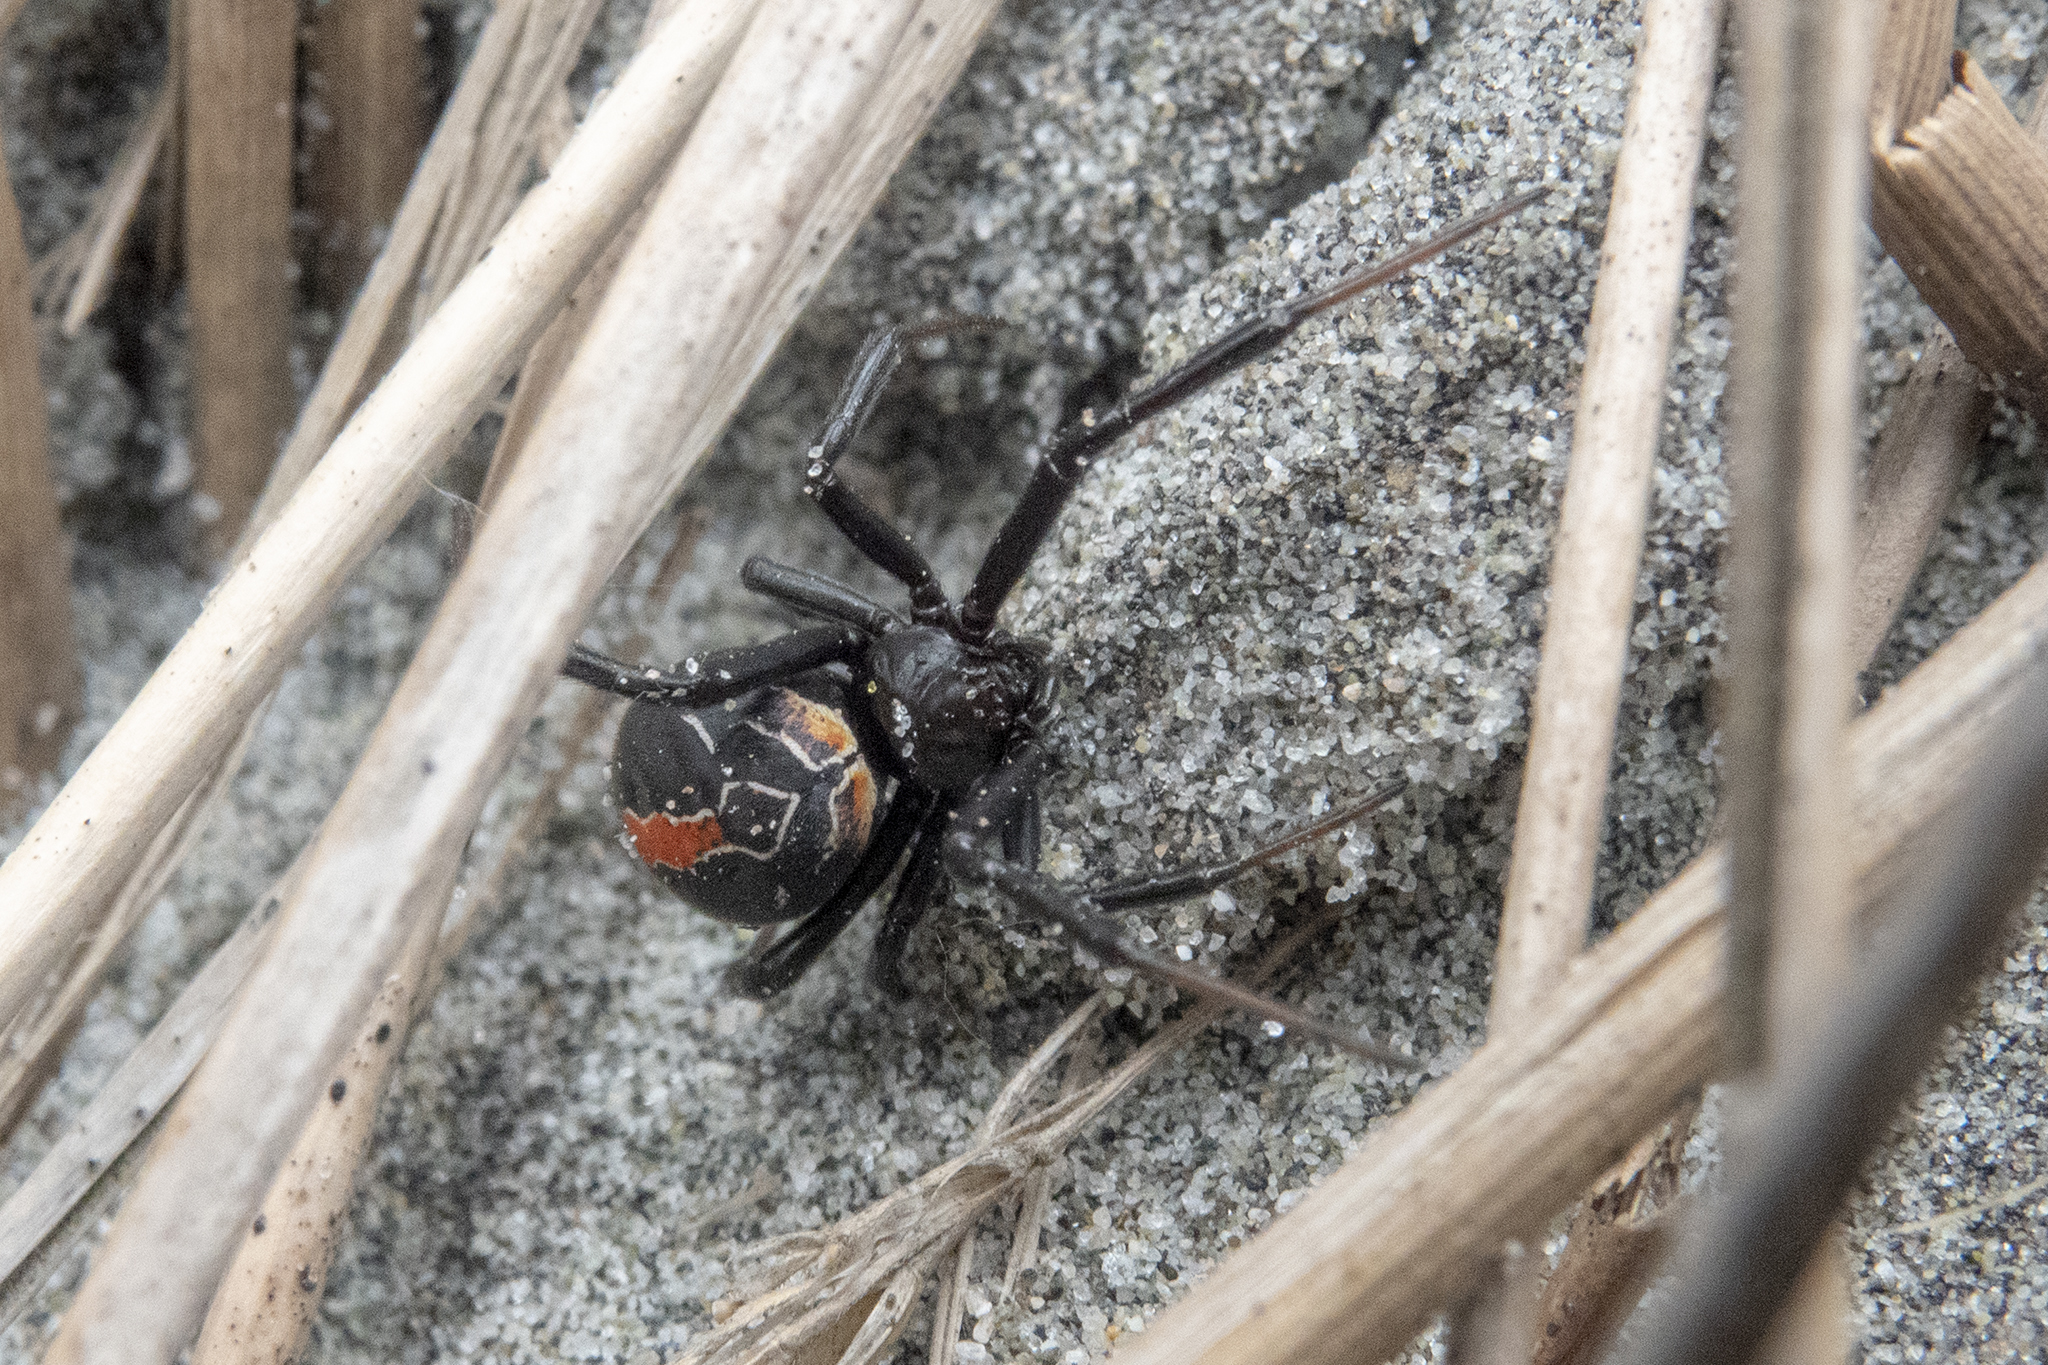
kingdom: Animalia
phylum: Arthropoda
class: Arachnida
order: Araneae
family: Theridiidae
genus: Latrodectus
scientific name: Latrodectus katipo
